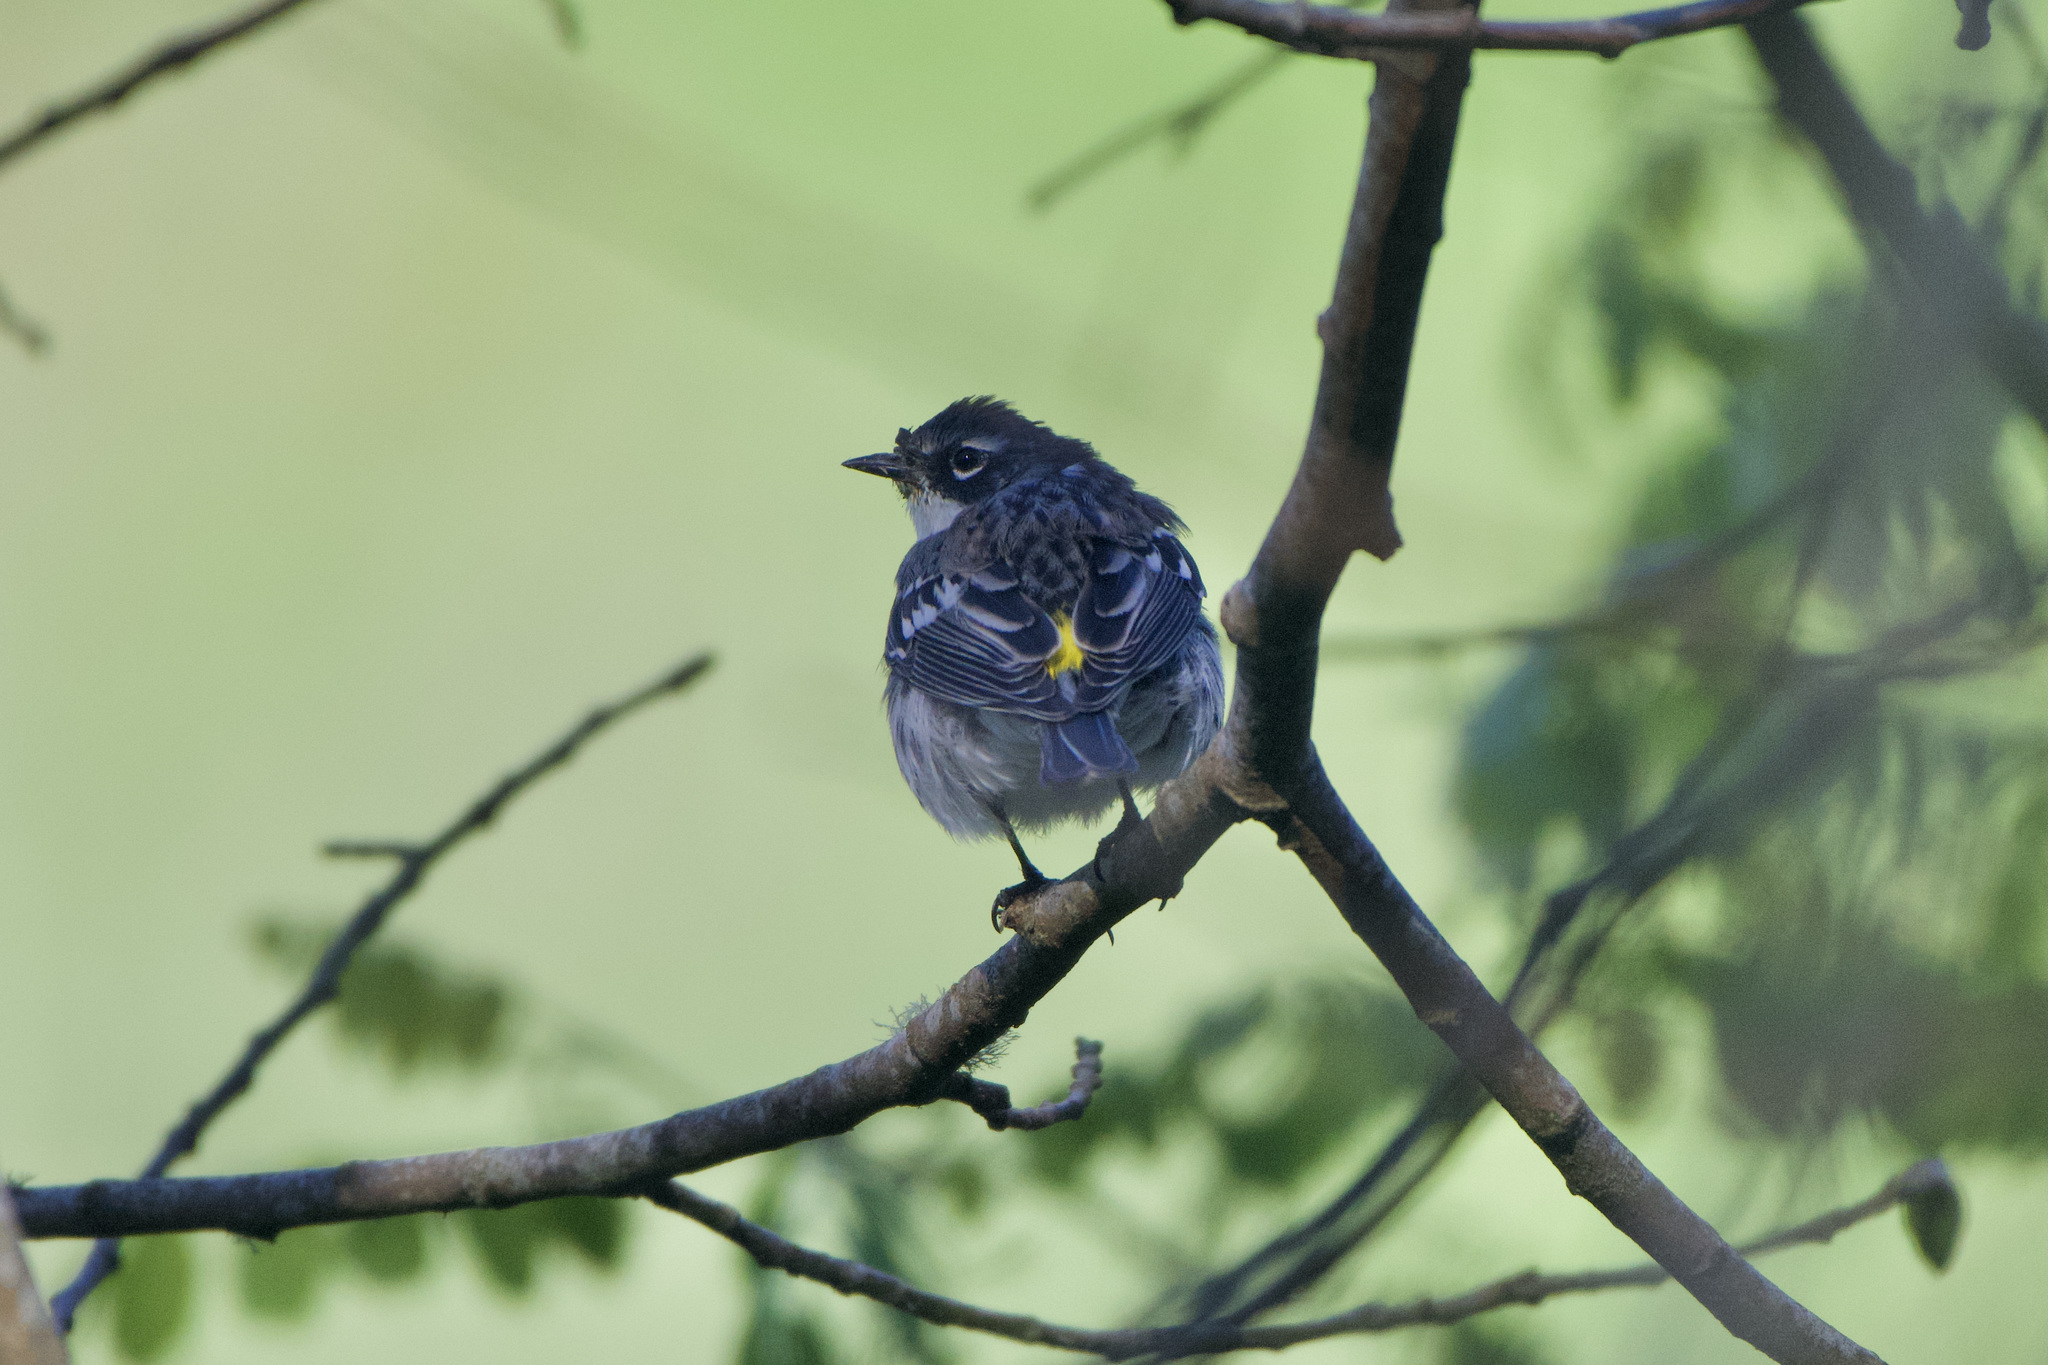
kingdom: Animalia
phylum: Chordata
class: Aves
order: Passeriformes
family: Parulidae
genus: Setophaga
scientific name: Setophaga coronata
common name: Myrtle warbler
